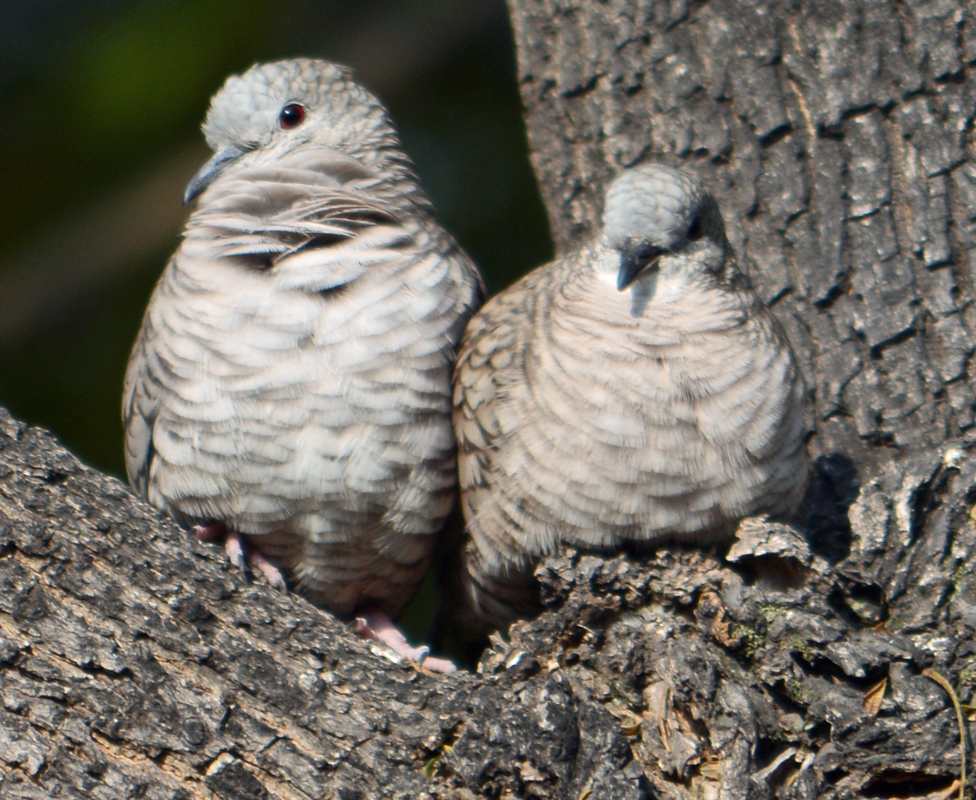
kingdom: Animalia
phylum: Chordata
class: Aves
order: Columbiformes
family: Columbidae
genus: Columbina
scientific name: Columbina inca
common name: Inca dove
